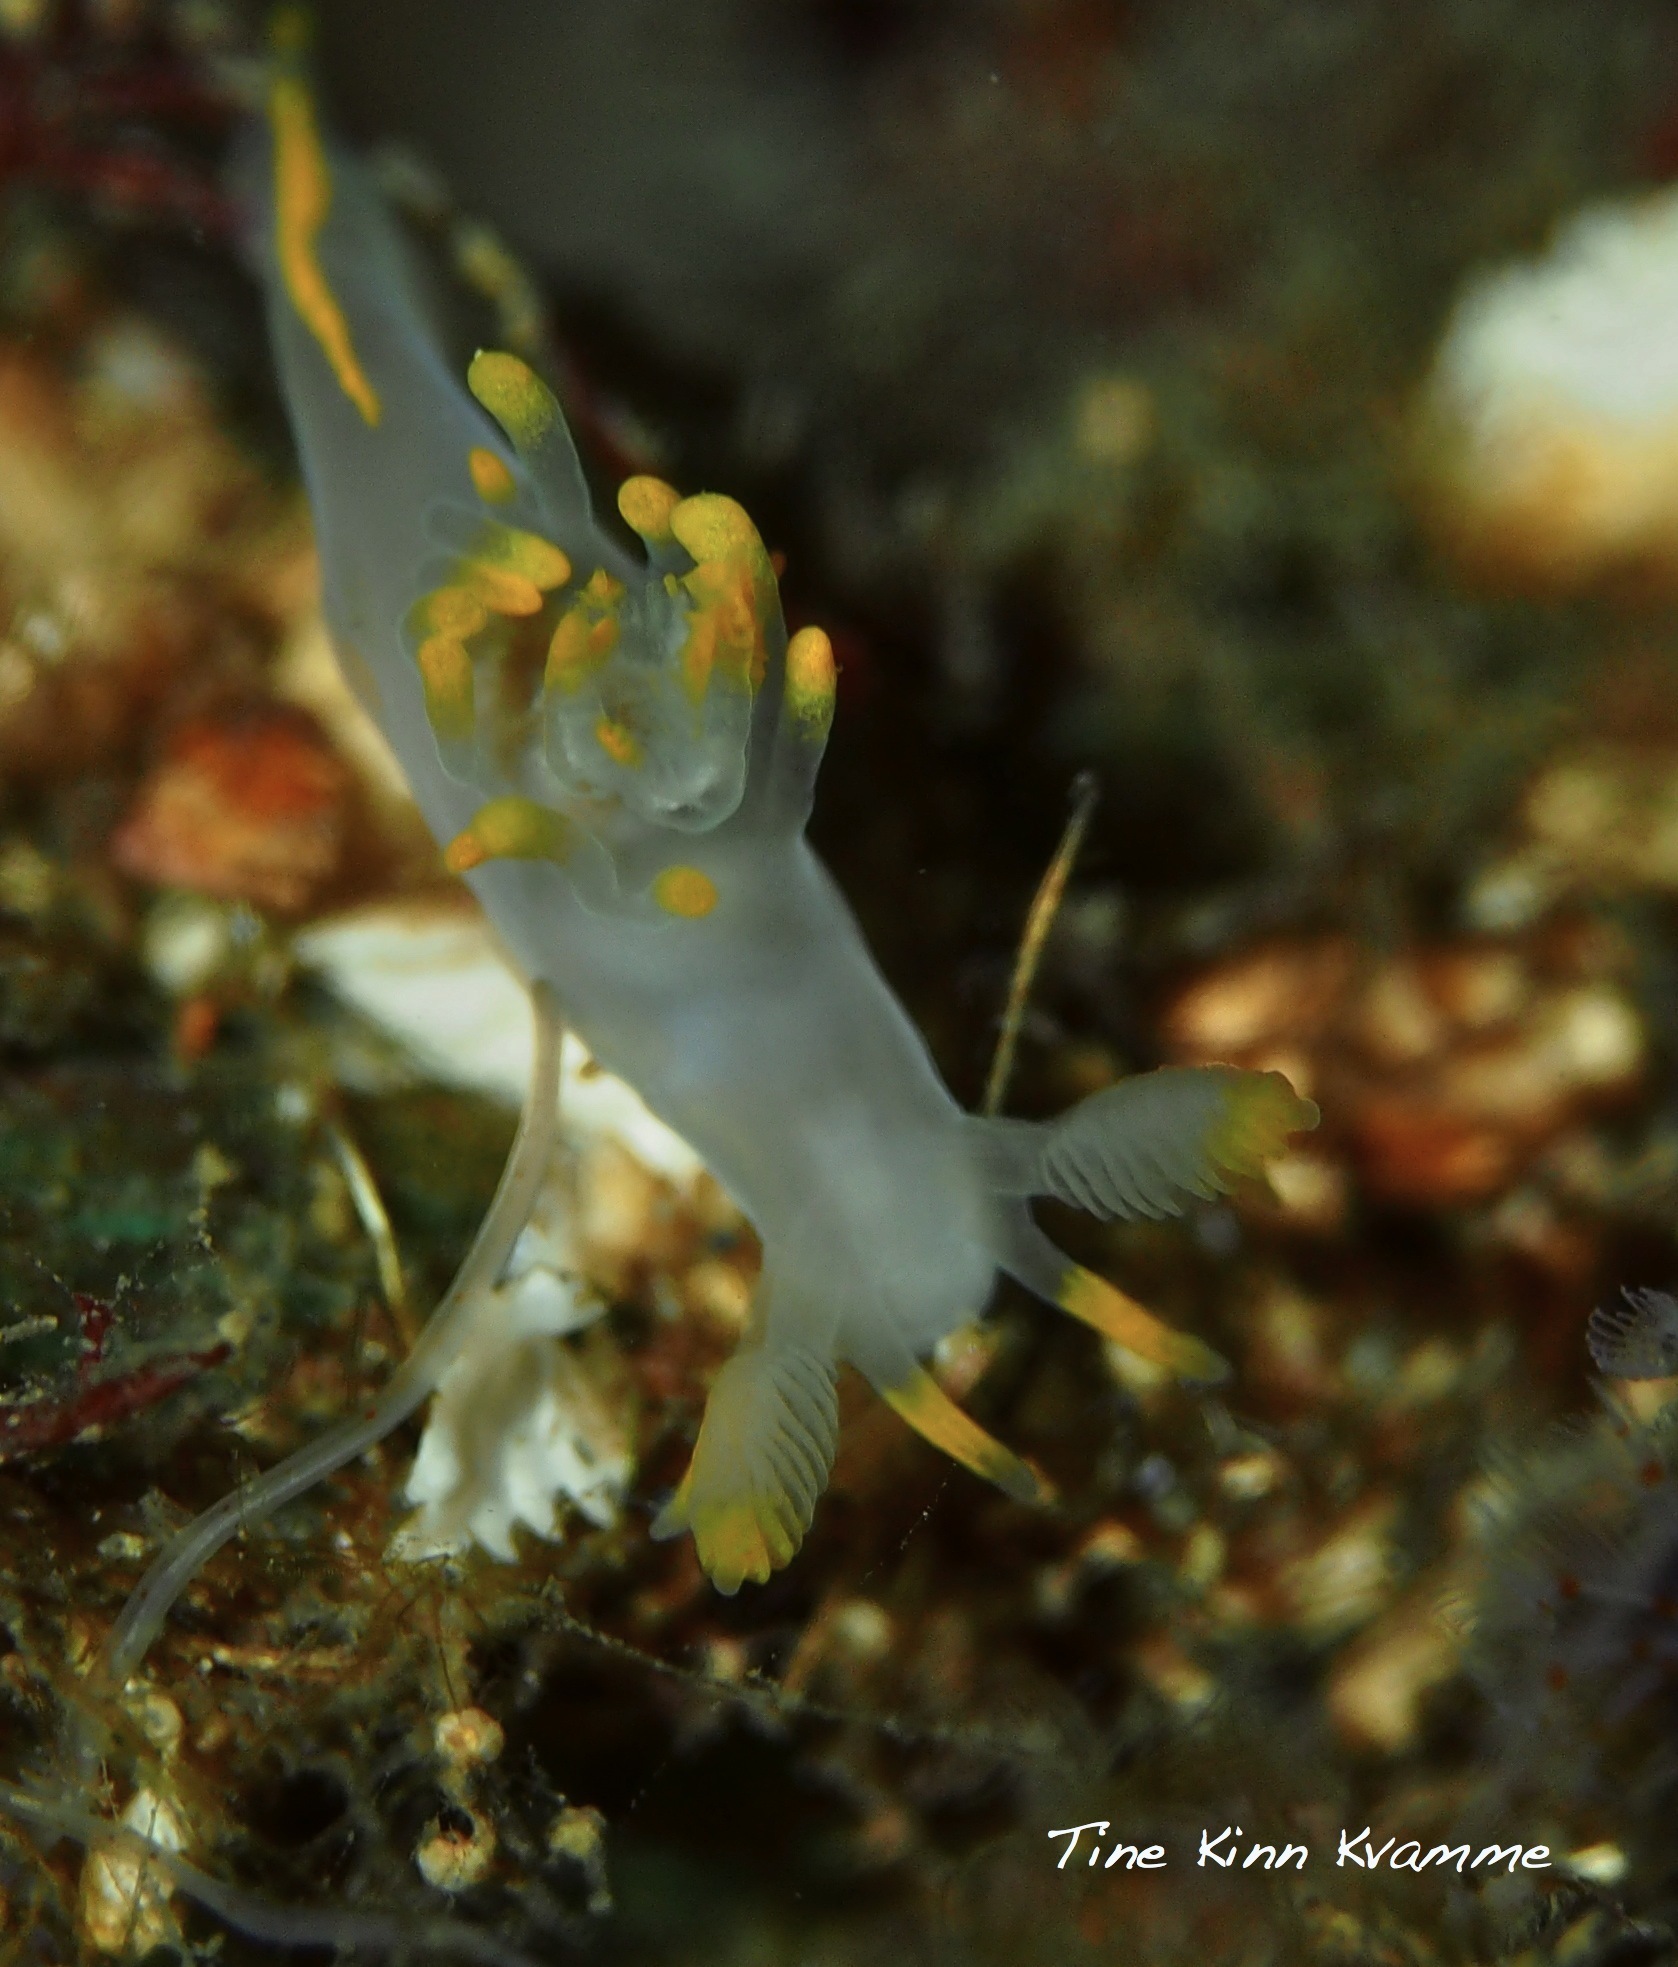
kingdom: Animalia
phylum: Mollusca
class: Gastropoda
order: Nudibranchia
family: Goniodorididae
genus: Ancula
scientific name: Ancula gibbosa
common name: Atlantic ancula
